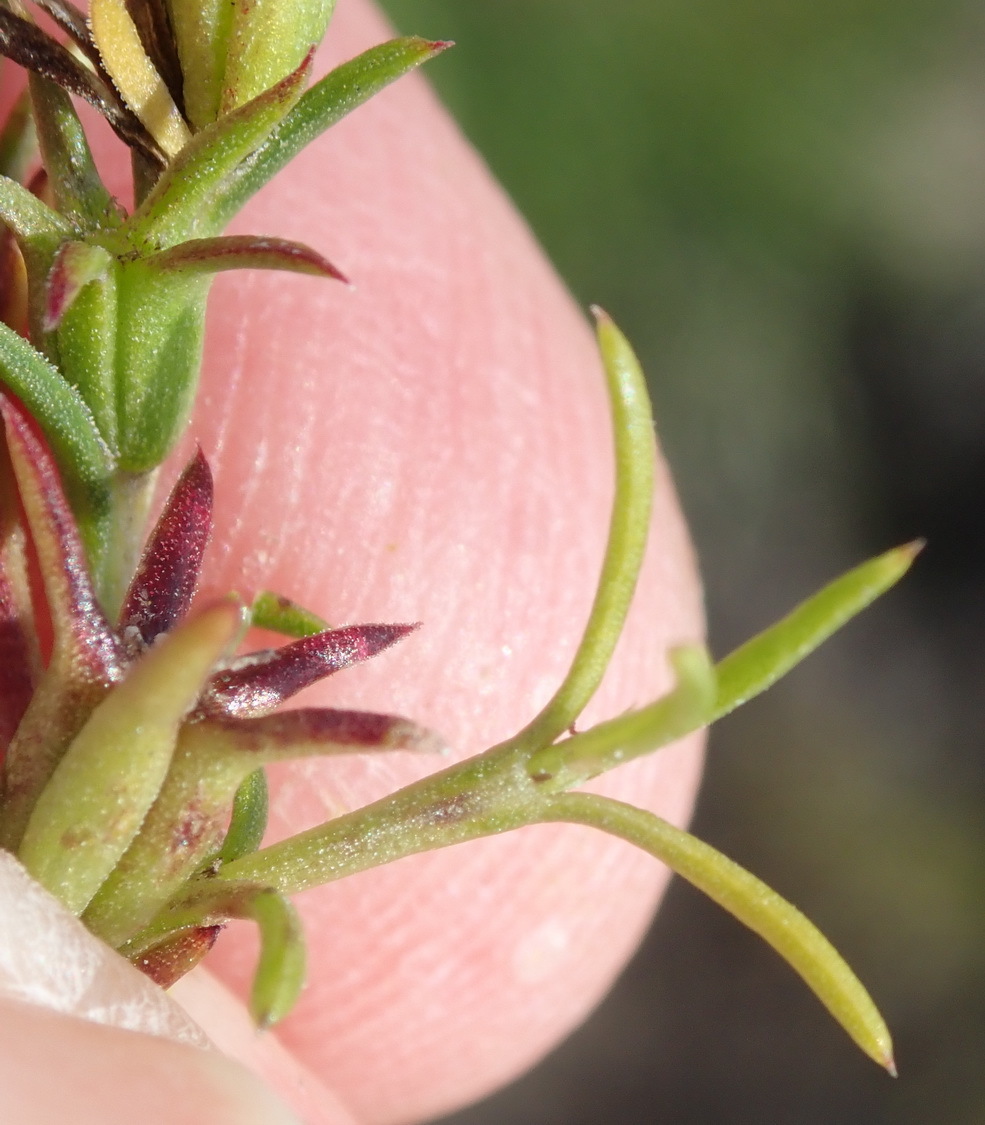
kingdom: Plantae
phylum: Tracheophyta
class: Magnoliopsida
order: Gentianales
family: Rubiaceae
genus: Carpacoce
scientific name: Carpacoce vaginellata
